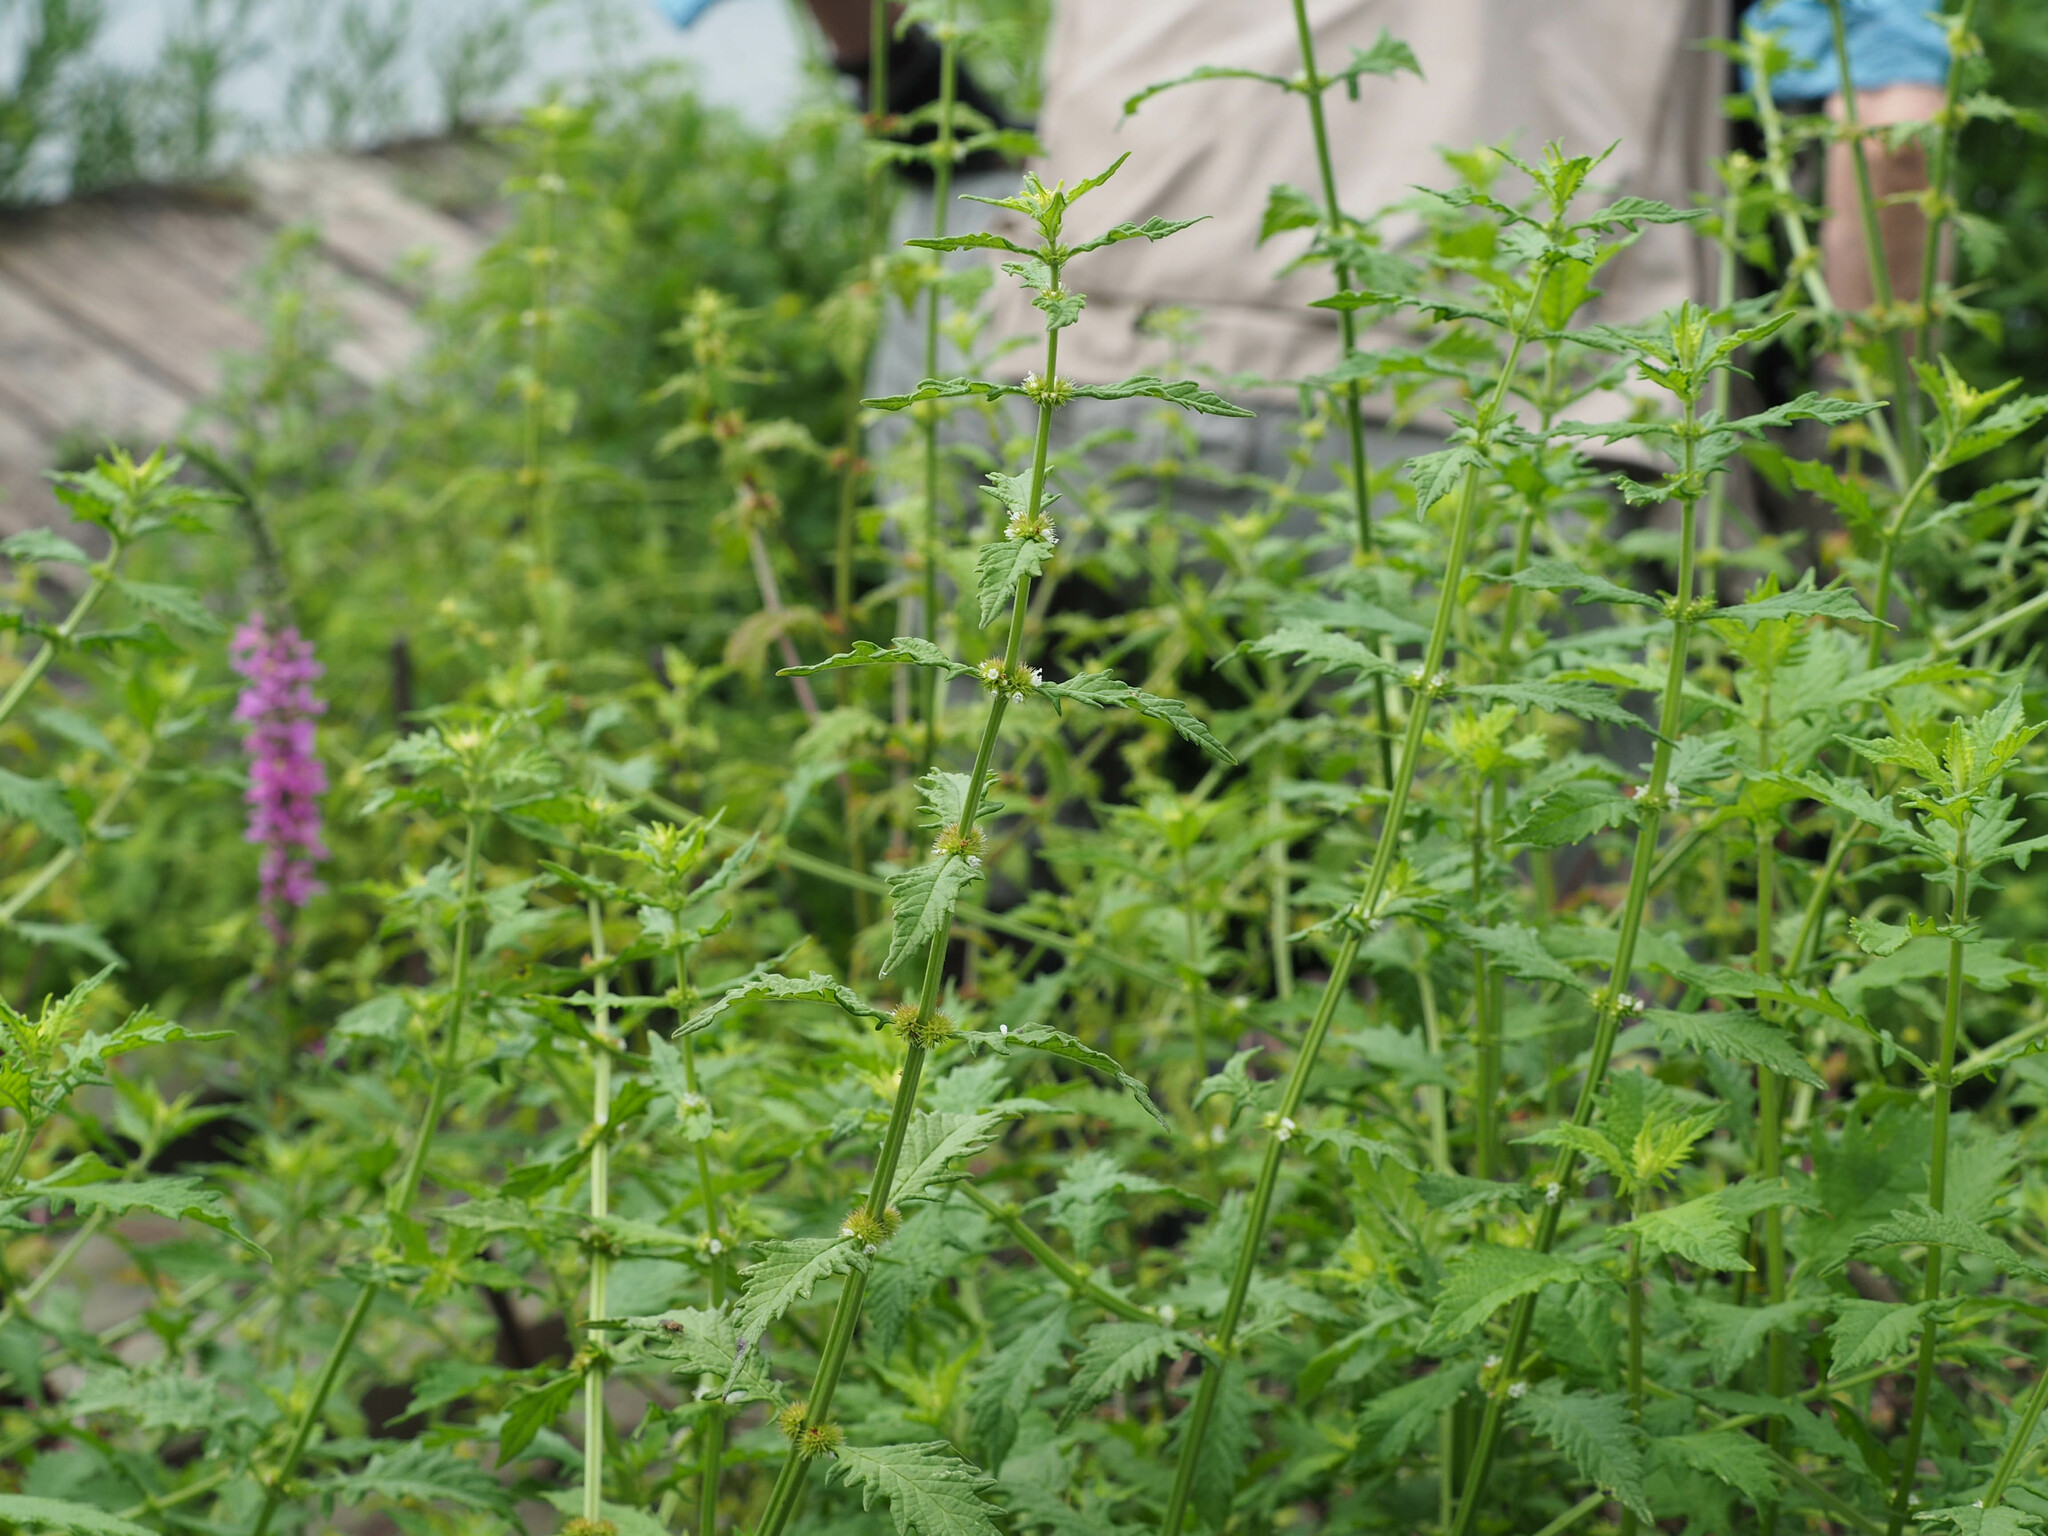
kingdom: Plantae
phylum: Tracheophyta
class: Magnoliopsida
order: Lamiales
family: Lamiaceae
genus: Lycopus
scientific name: Lycopus europaeus
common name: European bugleweed
